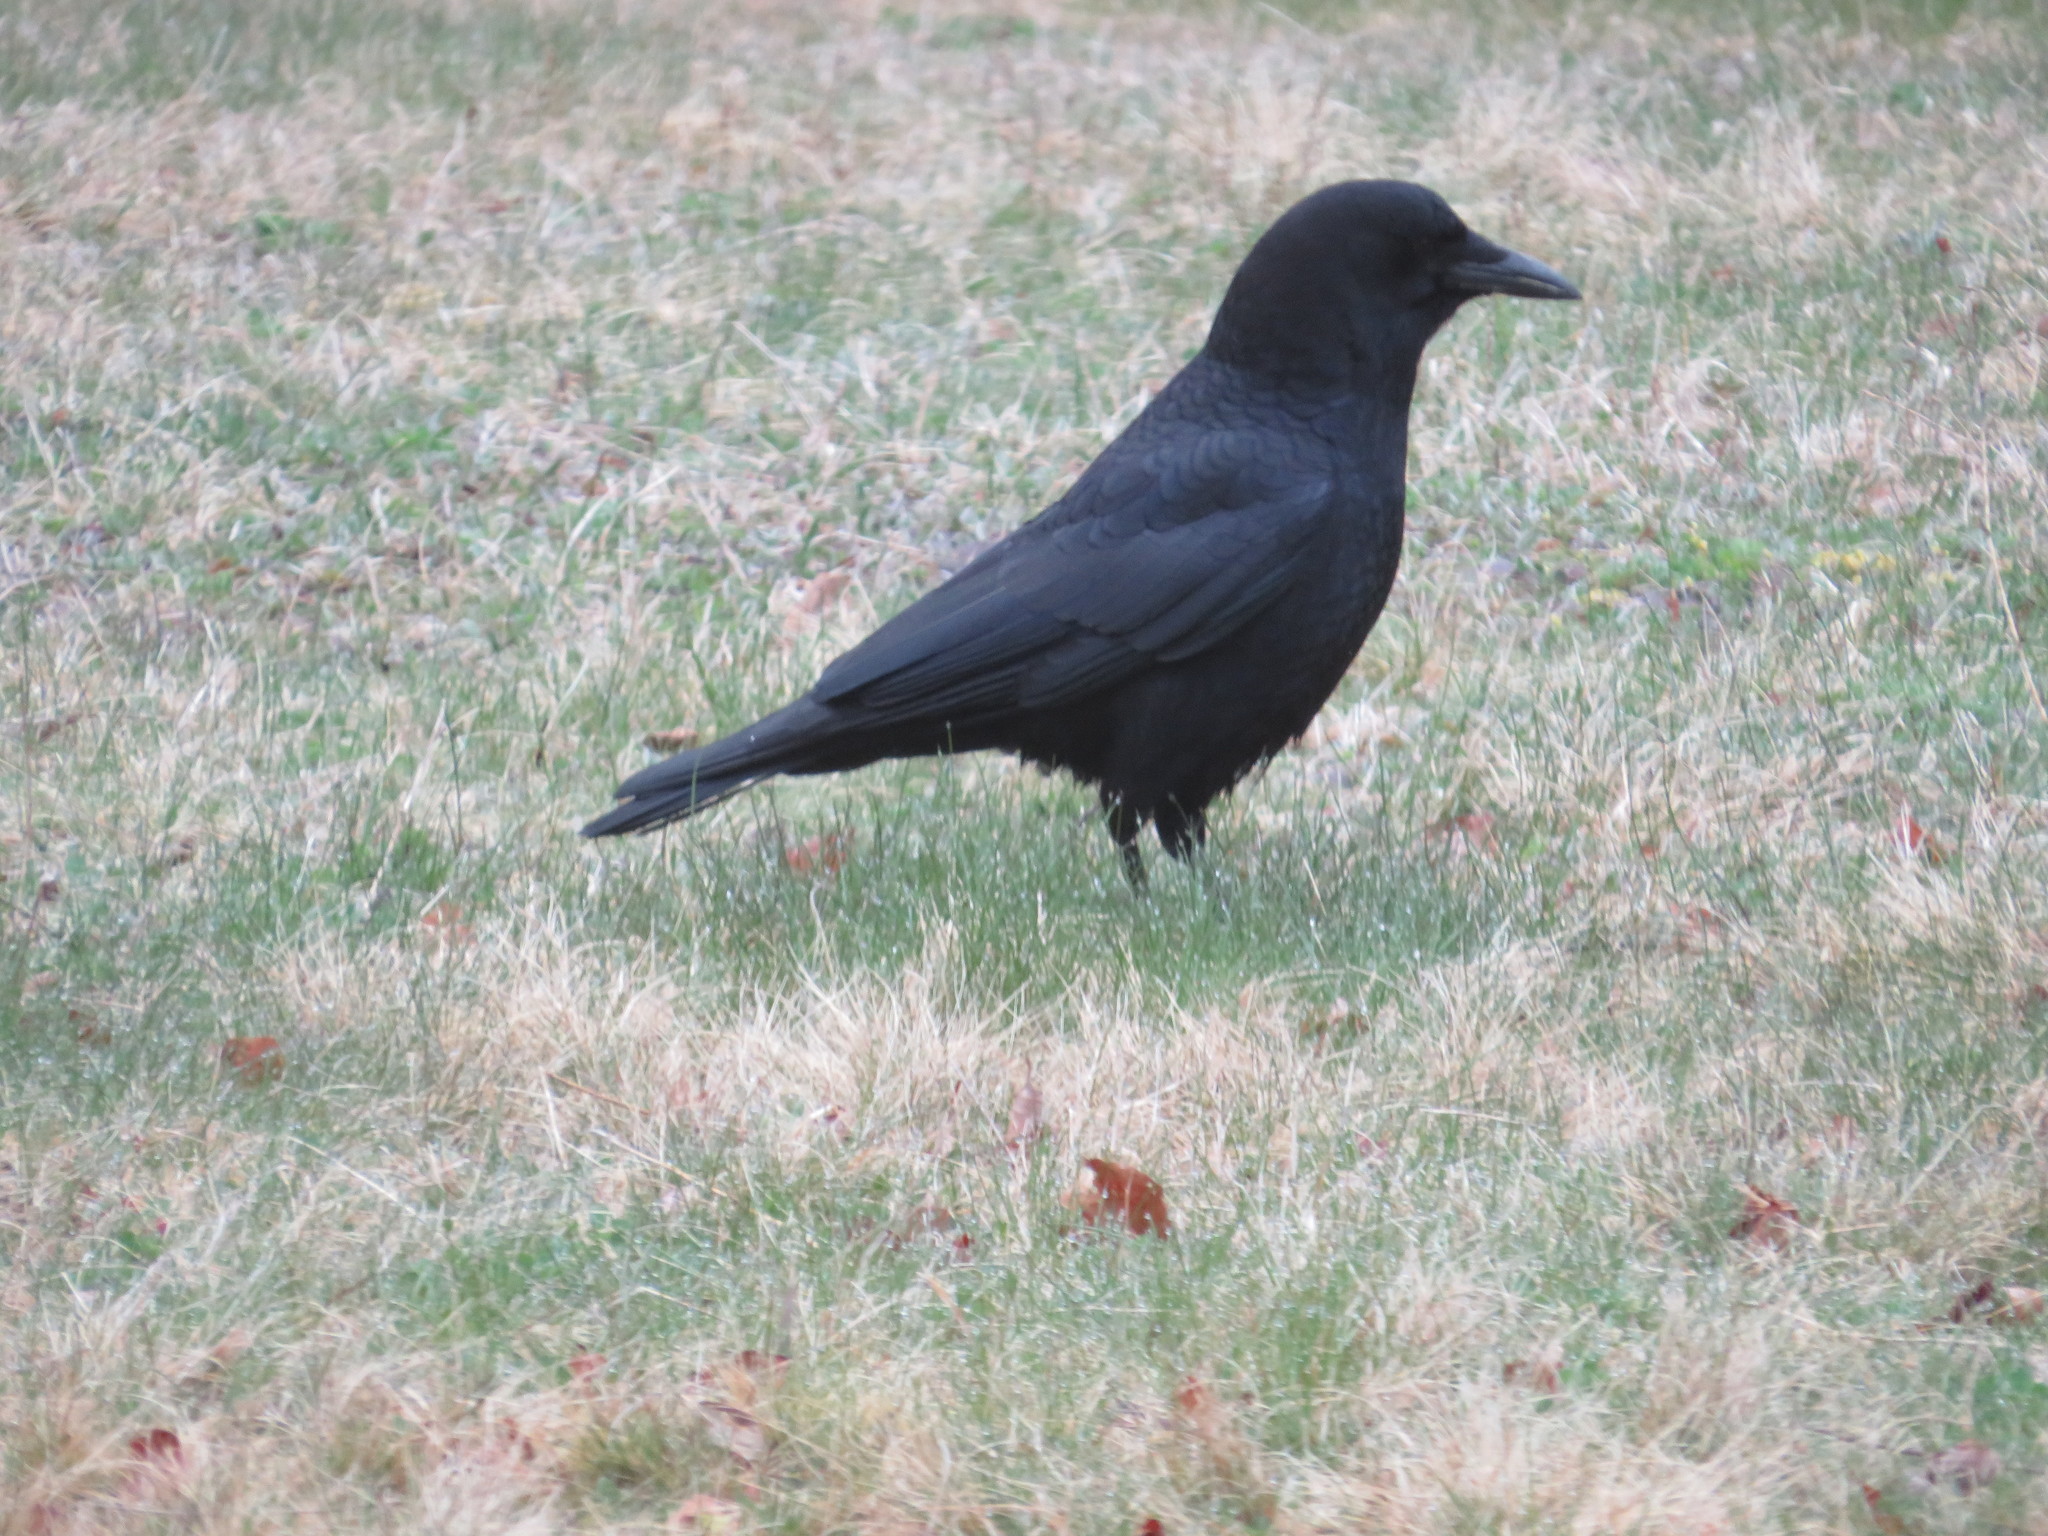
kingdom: Animalia
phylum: Chordata
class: Aves
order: Passeriformes
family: Corvidae
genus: Corvus
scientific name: Corvus brachyrhynchos
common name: American crow
